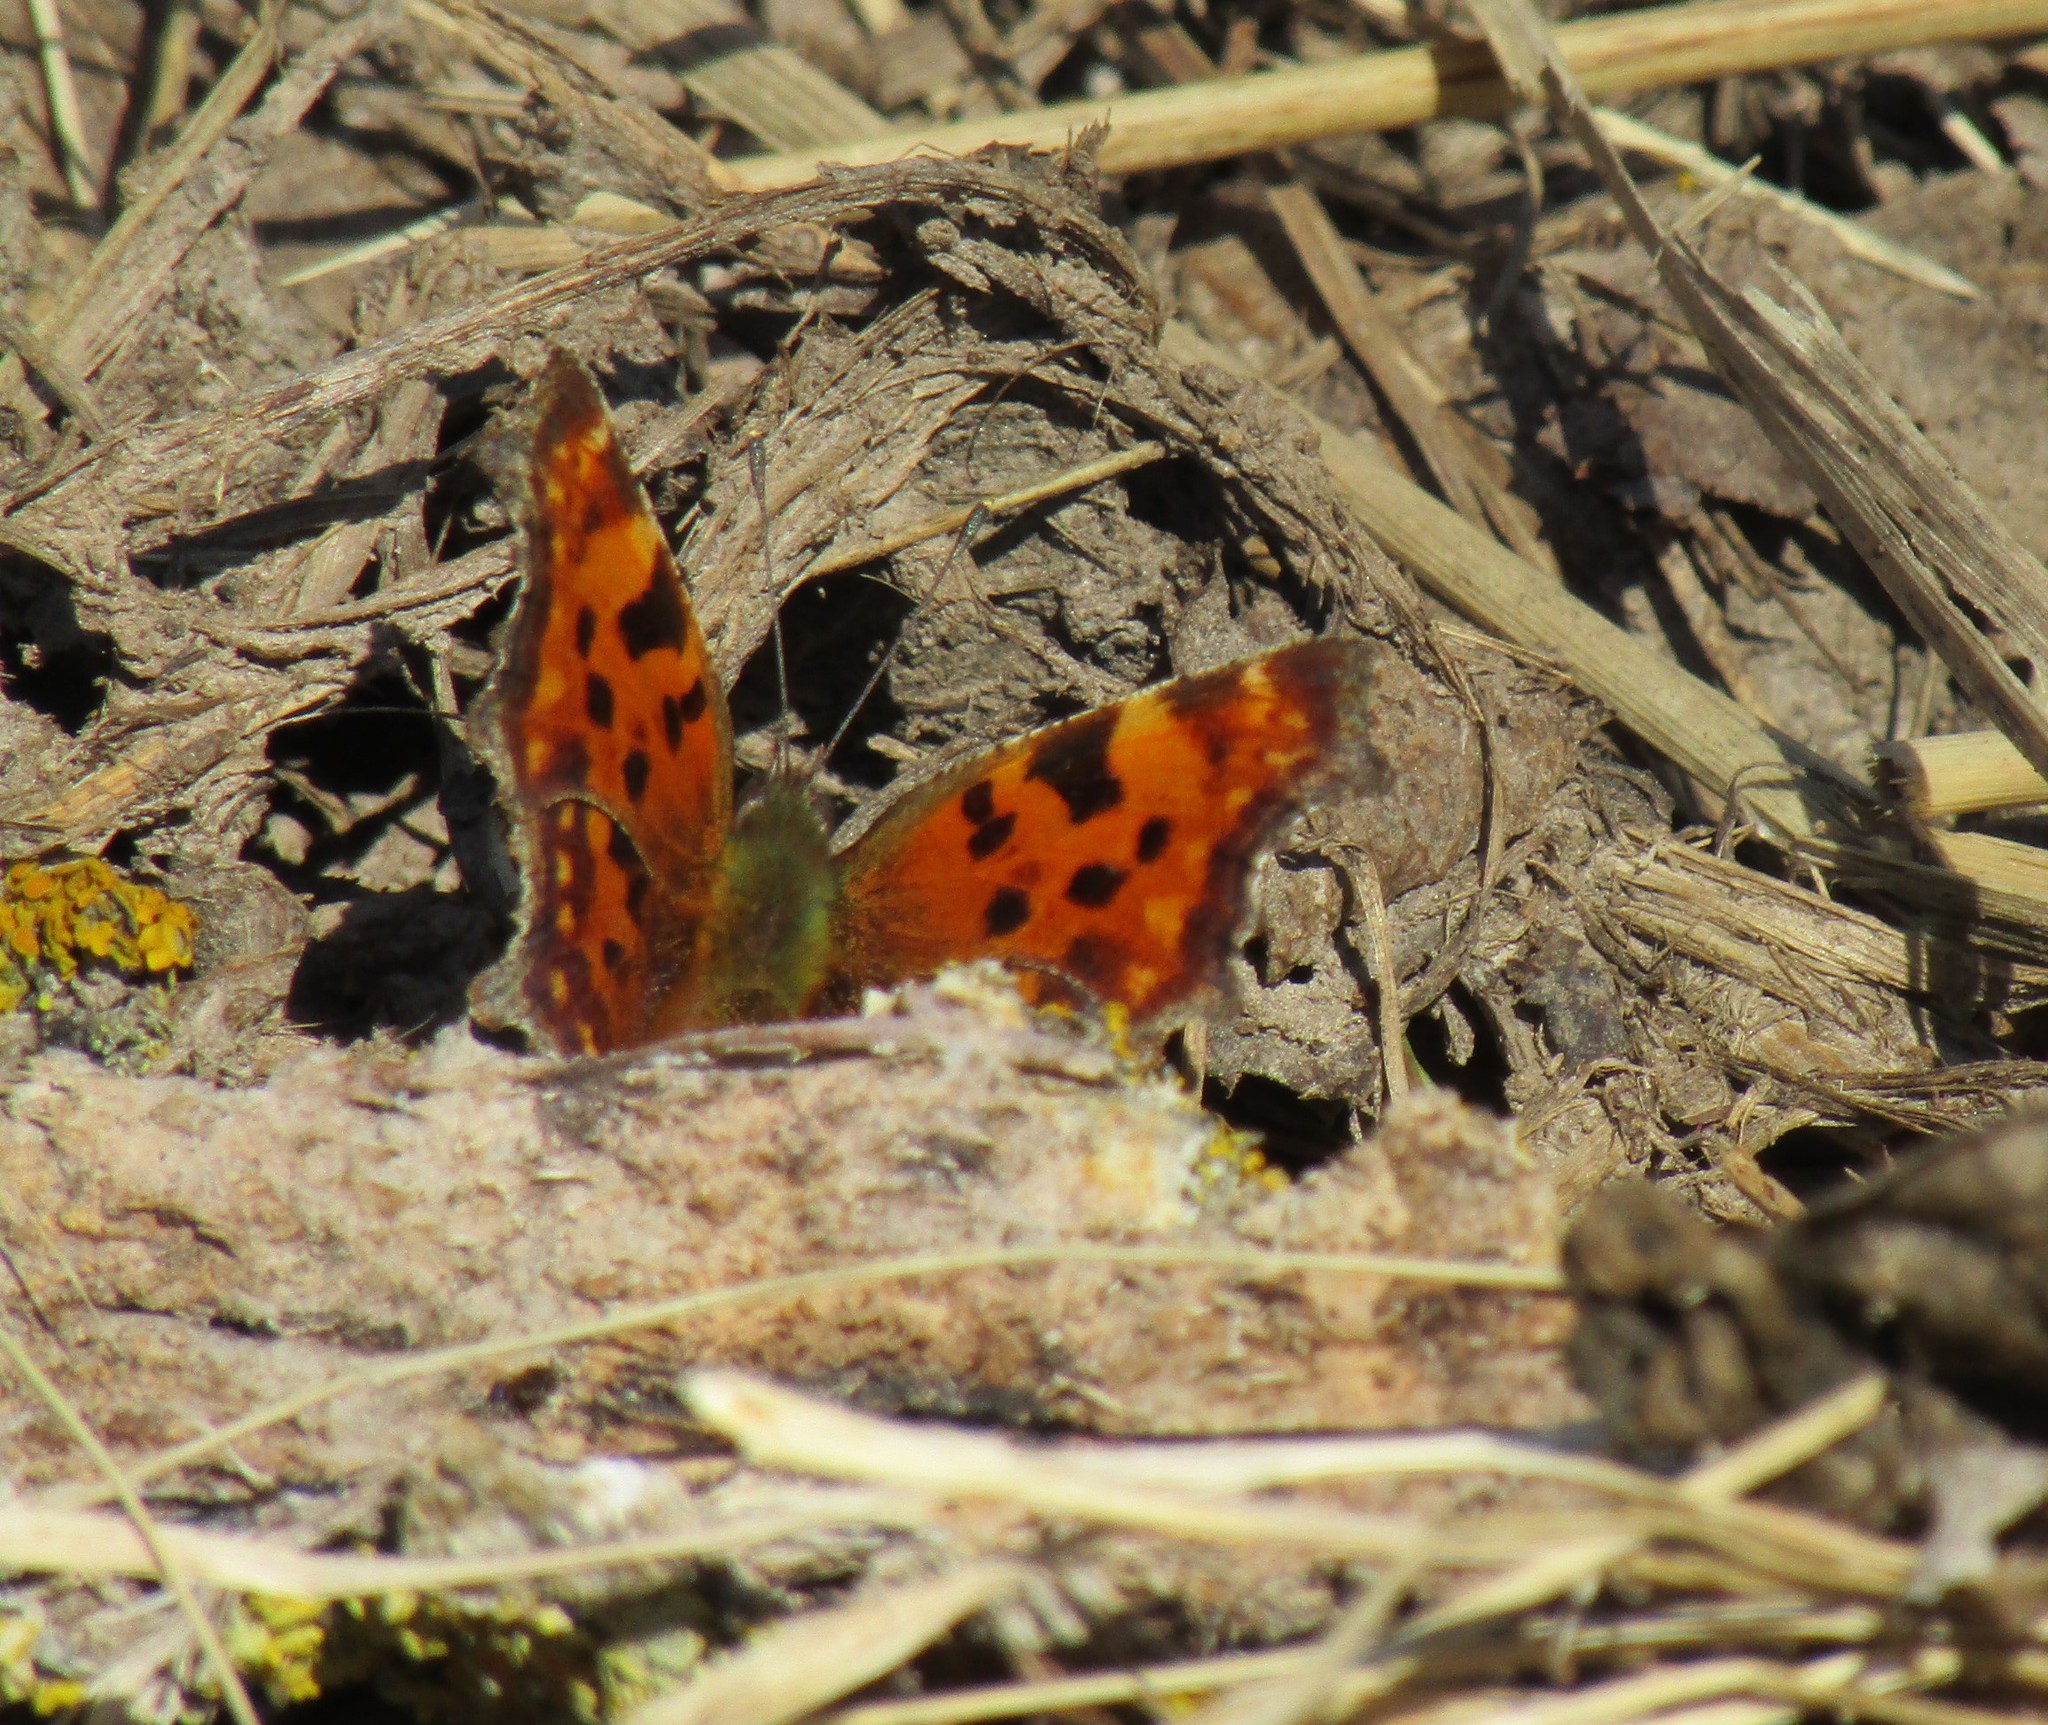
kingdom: Animalia
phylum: Arthropoda
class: Insecta
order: Lepidoptera
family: Nymphalidae
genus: Polygonia
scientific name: Polygonia c-album
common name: Comma
